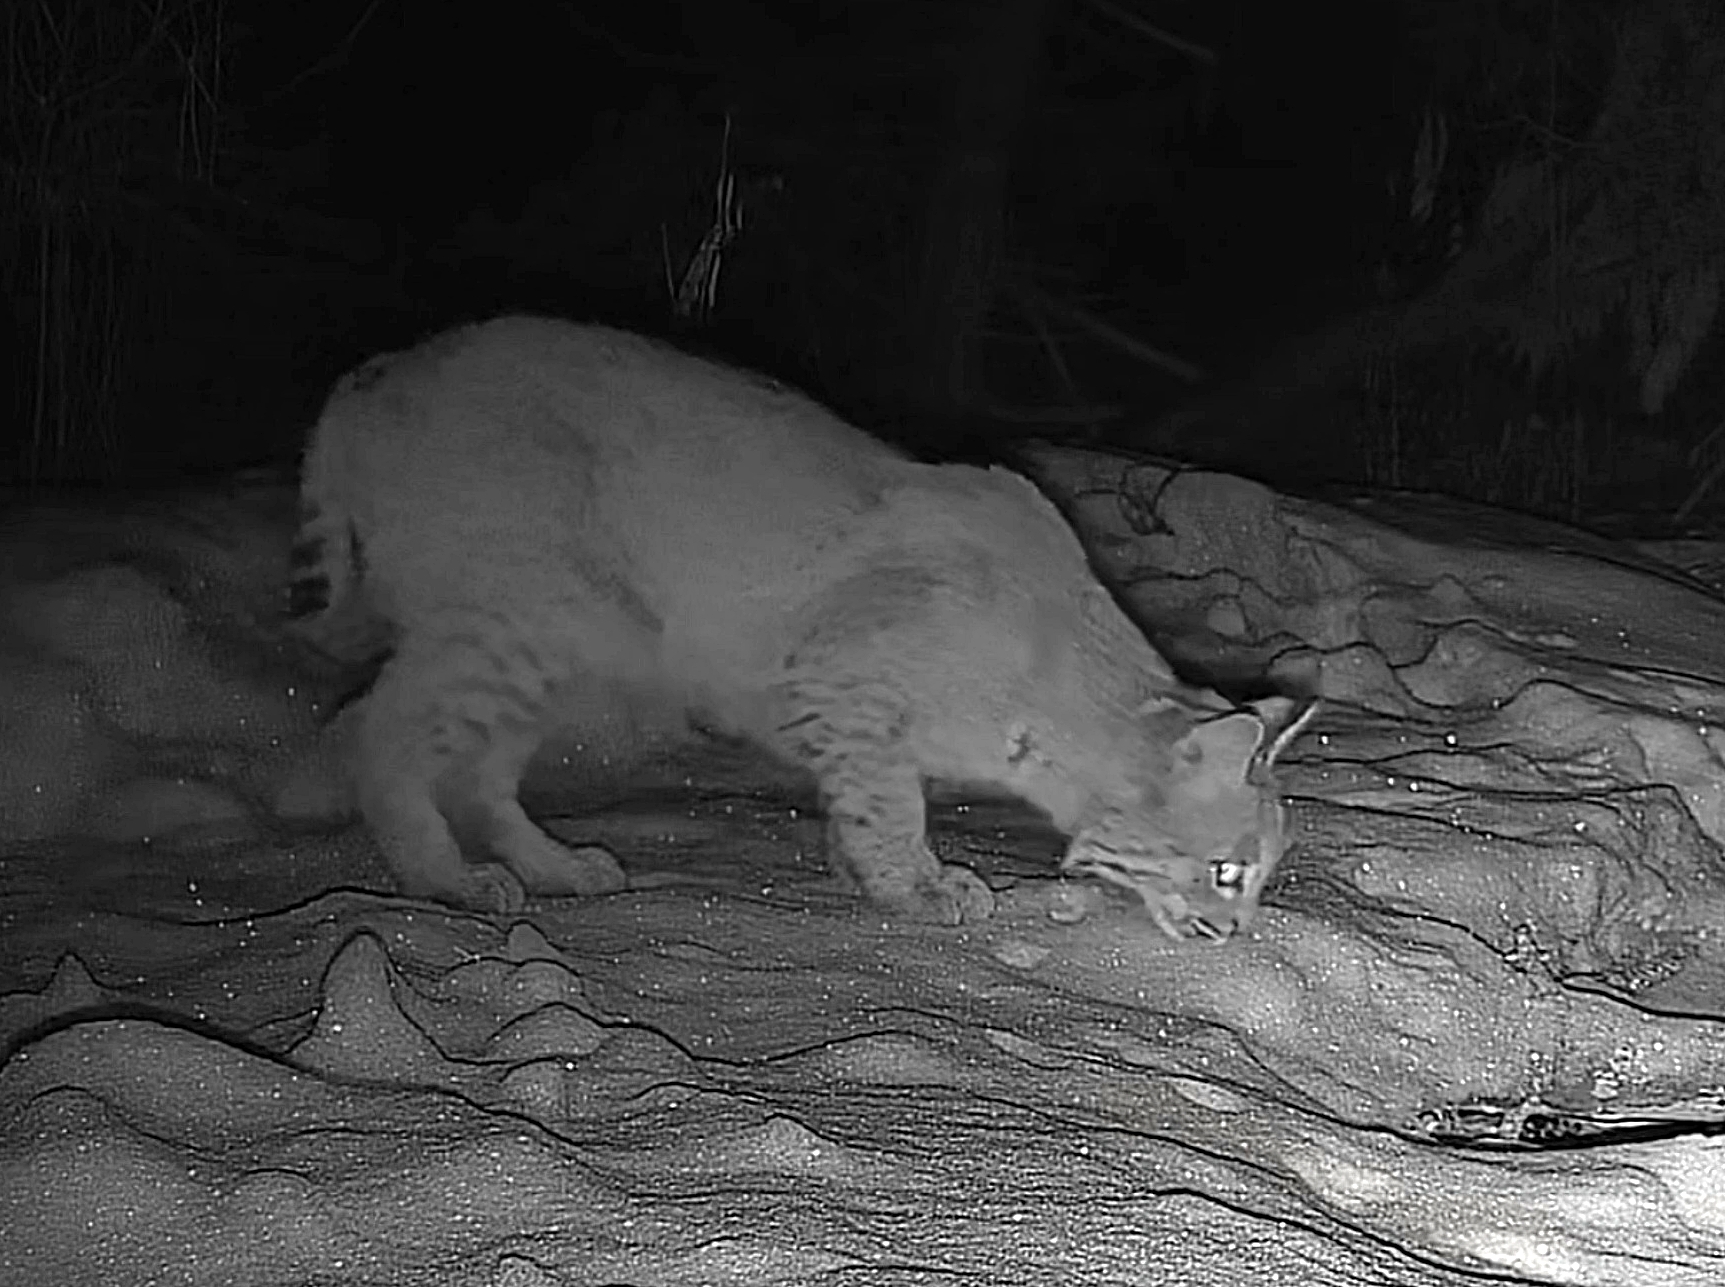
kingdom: Animalia
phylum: Chordata
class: Mammalia
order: Carnivora
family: Felidae
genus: Lynx
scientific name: Lynx rufus
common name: Bobcat
